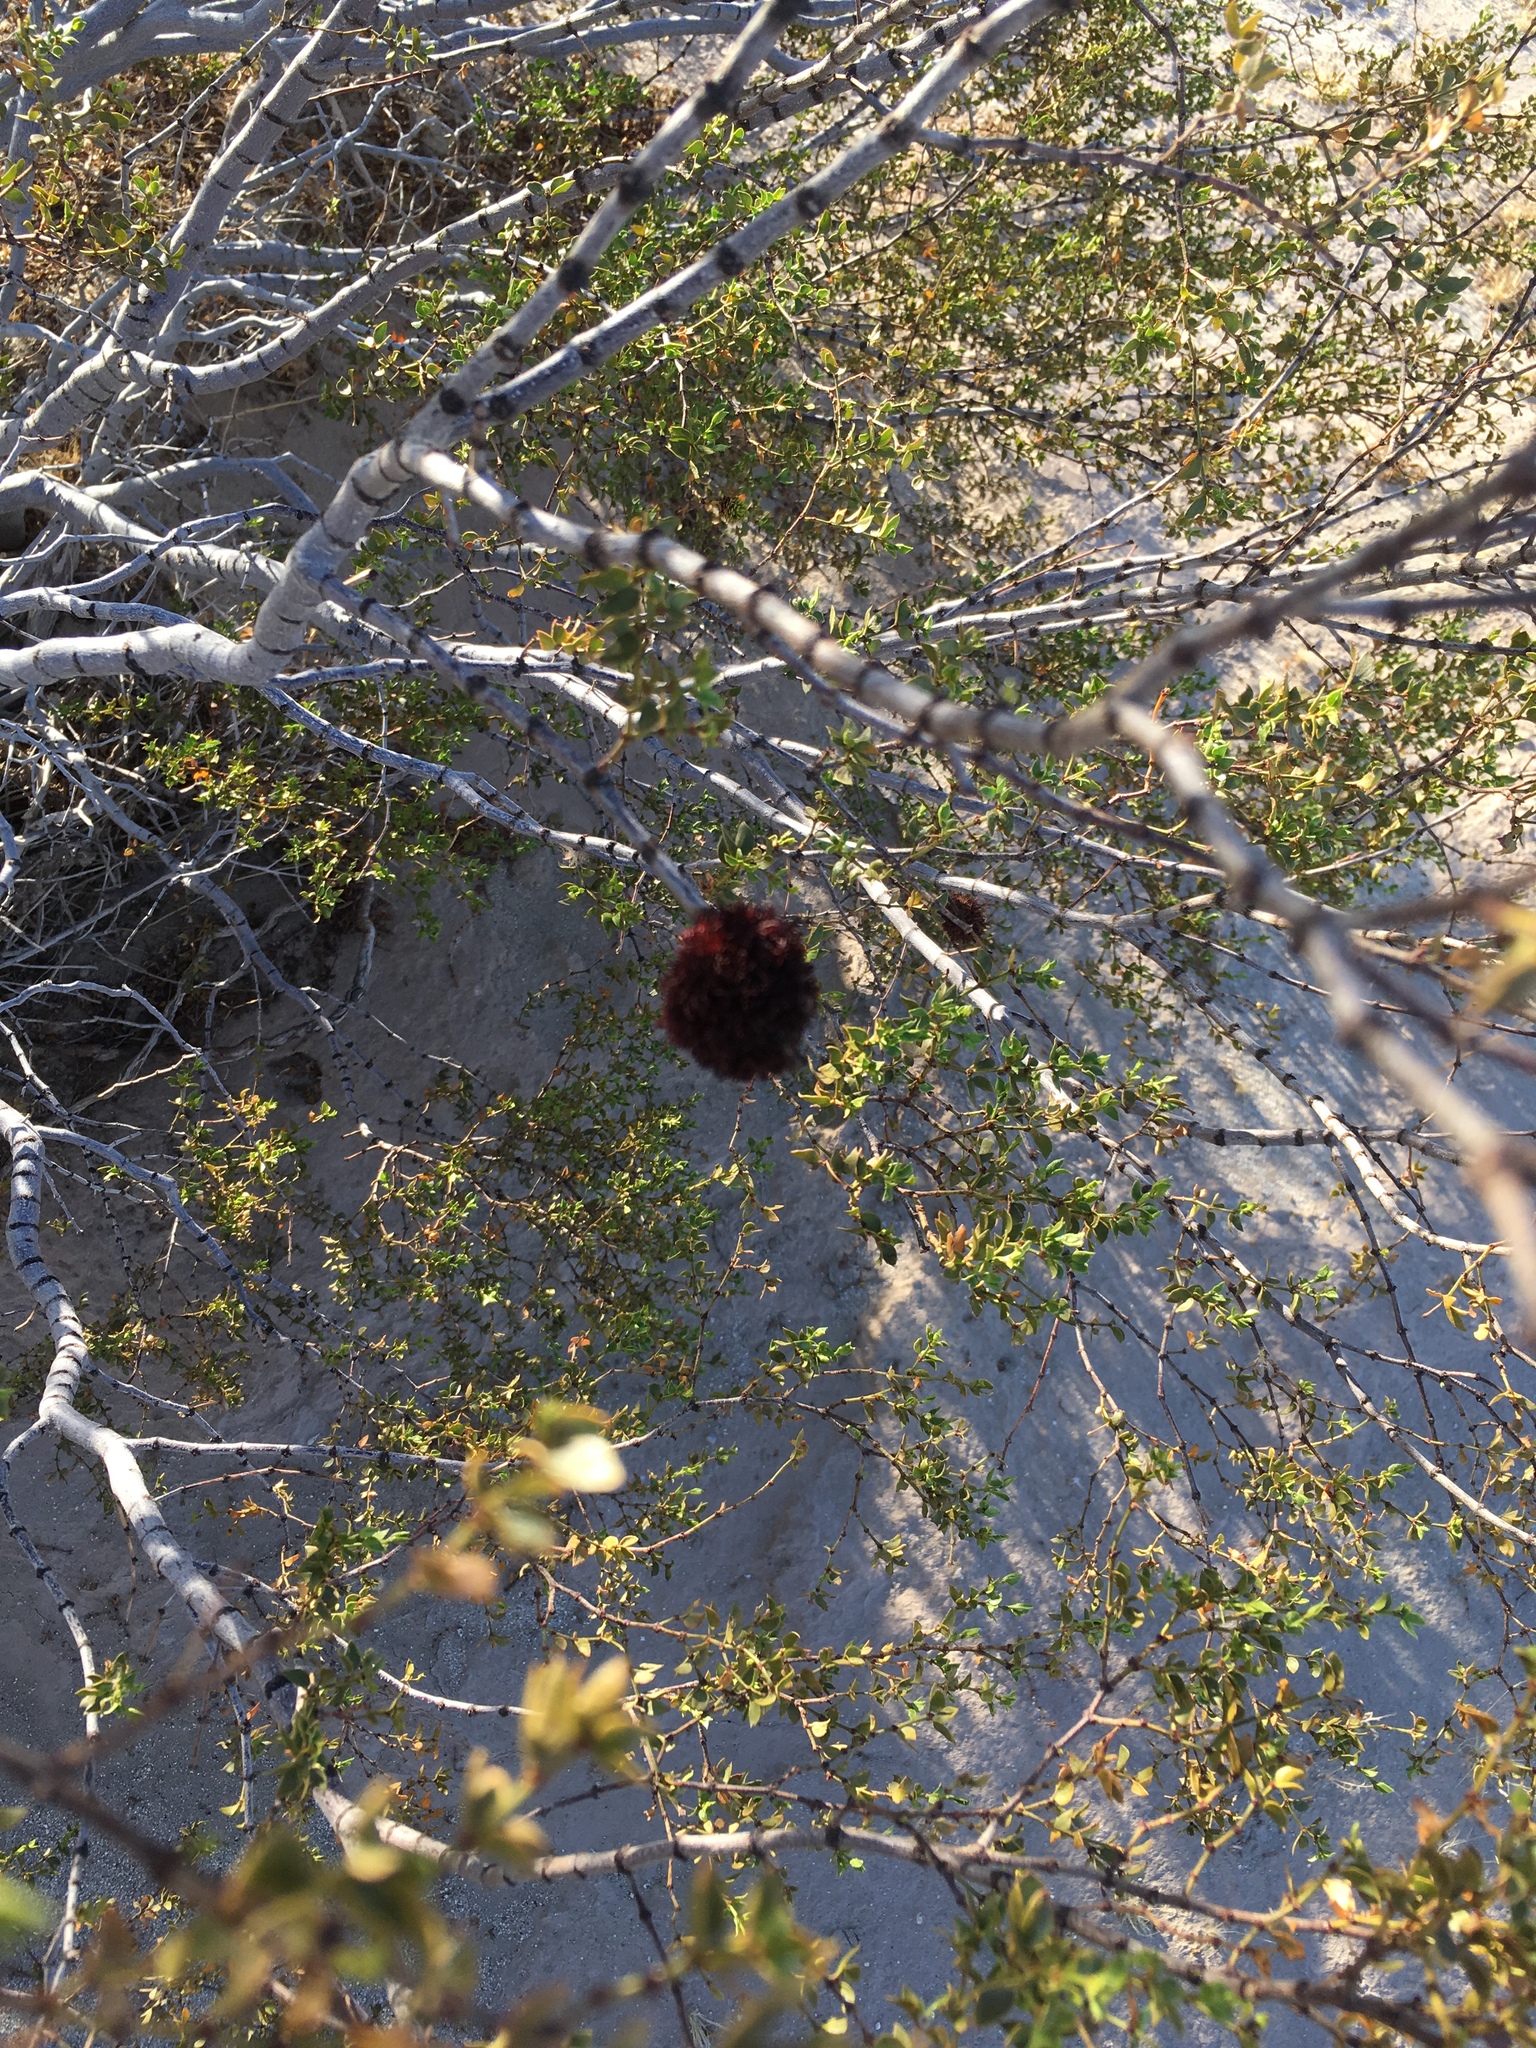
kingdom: Animalia
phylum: Arthropoda
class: Insecta
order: Diptera
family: Cecidomyiidae
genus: Asphondylia
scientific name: Asphondylia auripila
